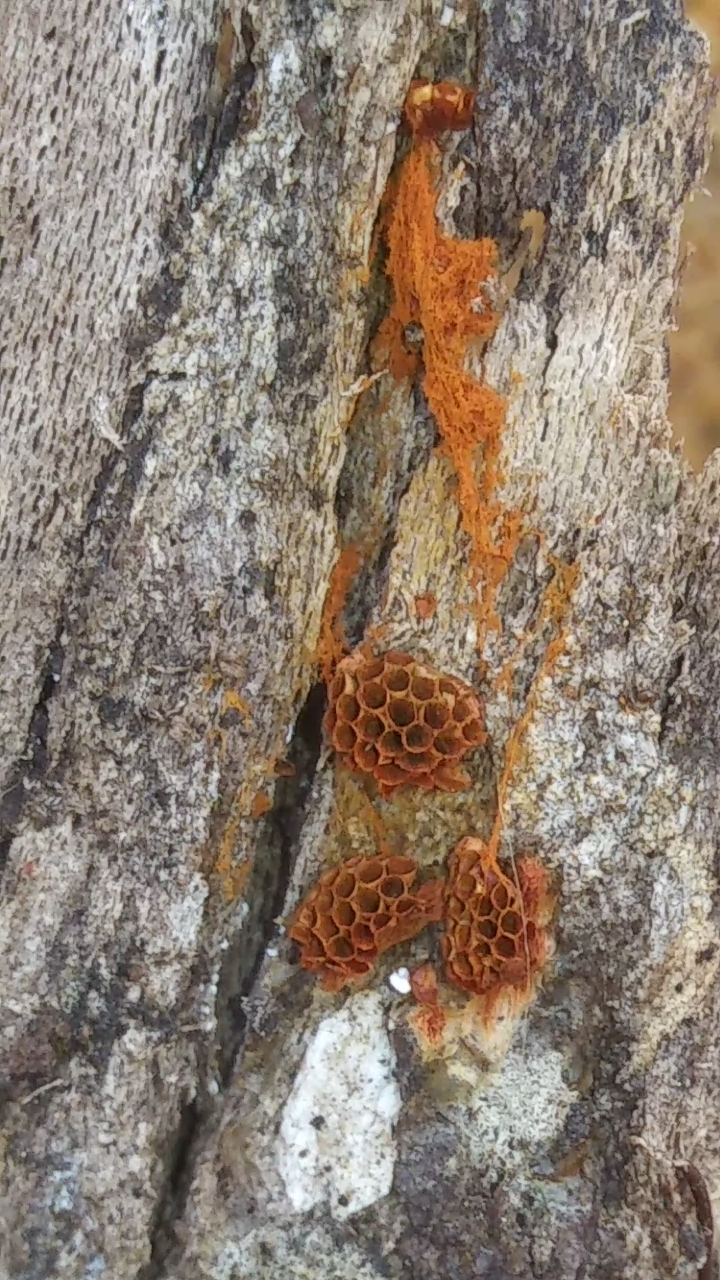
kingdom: Protozoa
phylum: Mycetozoa
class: Myxomycetes
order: Trichiales
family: Trichiaceae
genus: Metatrichia
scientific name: Metatrichia vesparia
